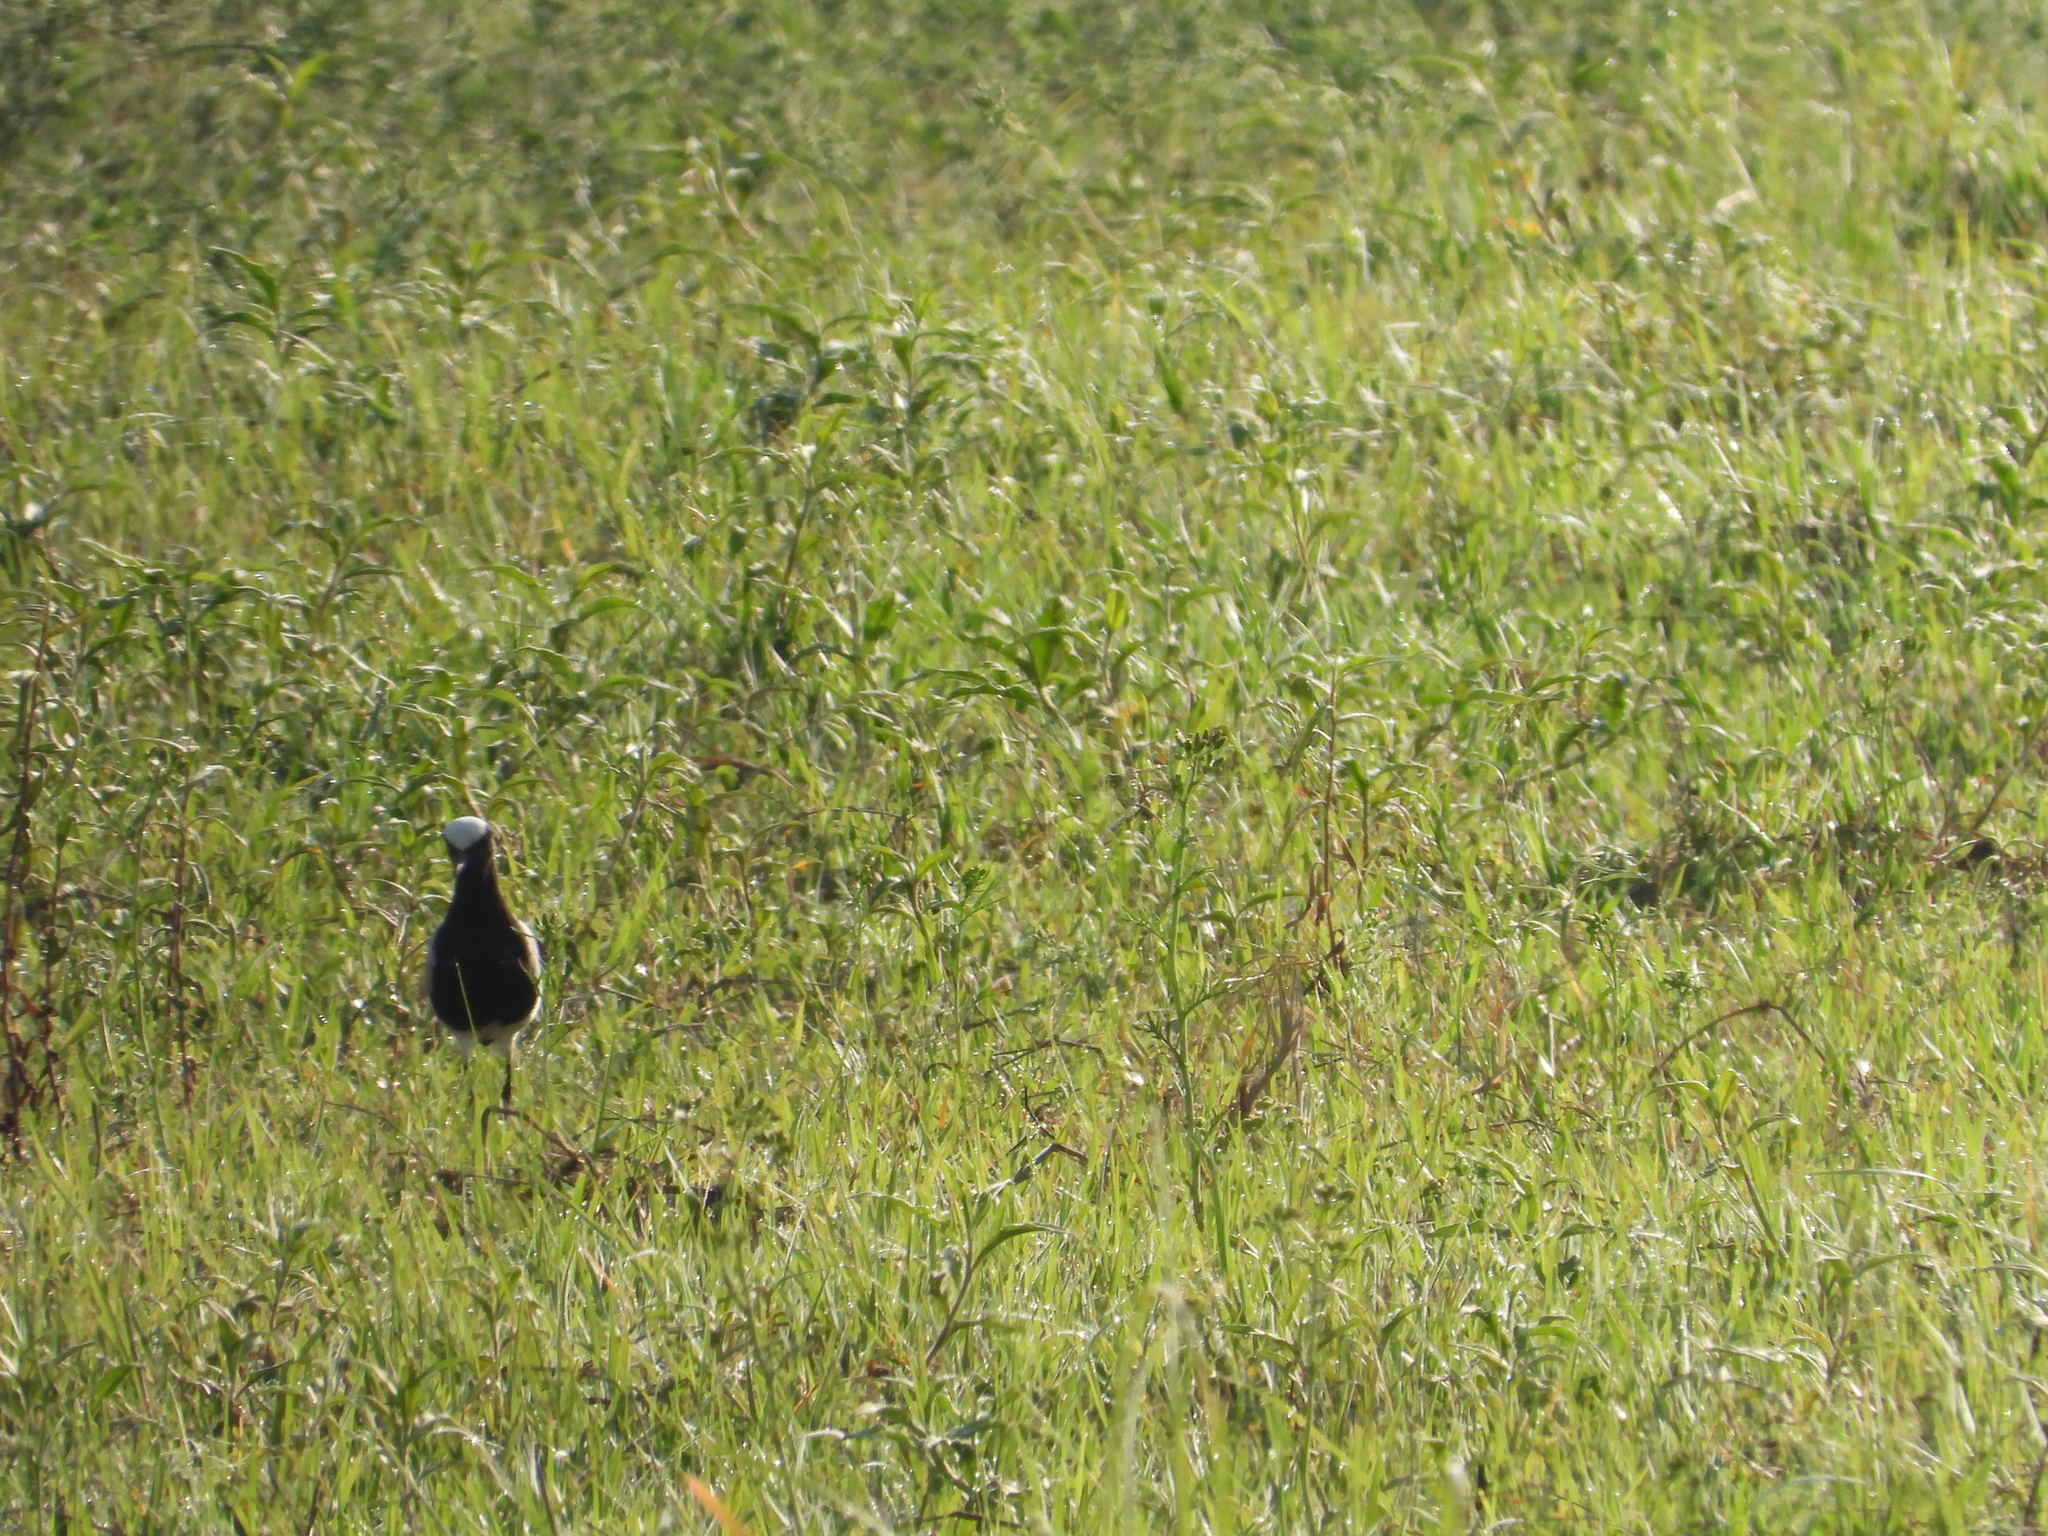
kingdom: Animalia
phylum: Chordata
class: Aves
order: Charadriiformes
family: Charadriidae
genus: Vanellus
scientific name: Vanellus armatus
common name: Blacksmith lapwing
